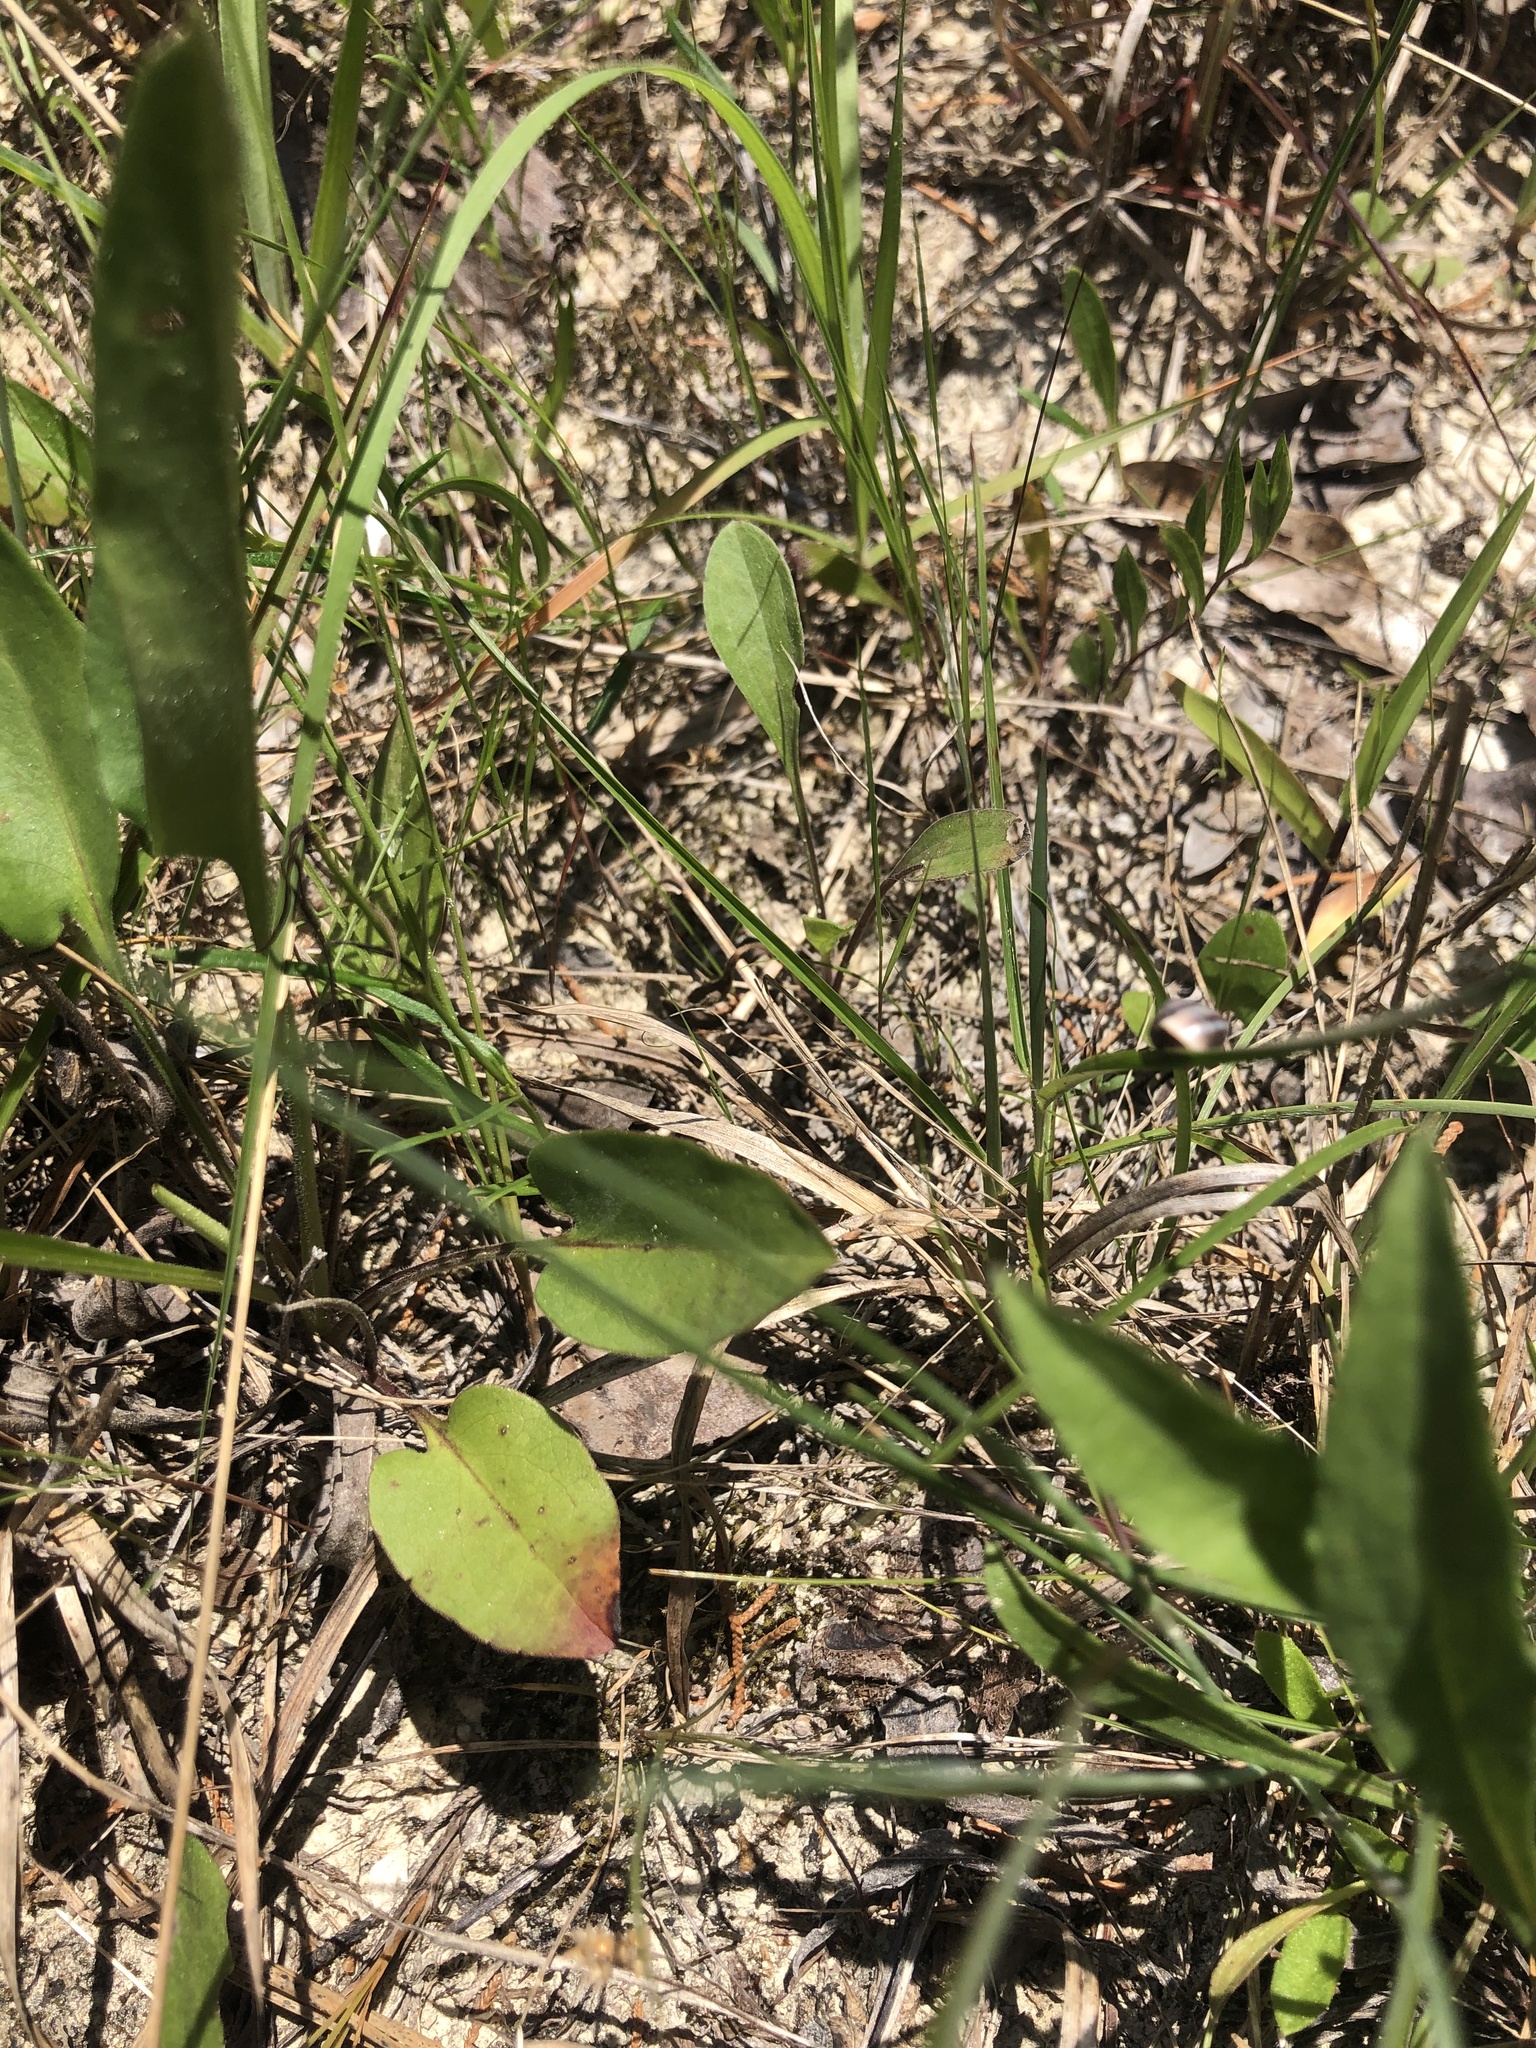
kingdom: Plantae
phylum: Tracheophyta
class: Magnoliopsida
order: Asterales
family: Asteraceae
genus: Symphyotrichum
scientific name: Symphyotrichum undulatum
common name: Clasping heart-leaf aster
